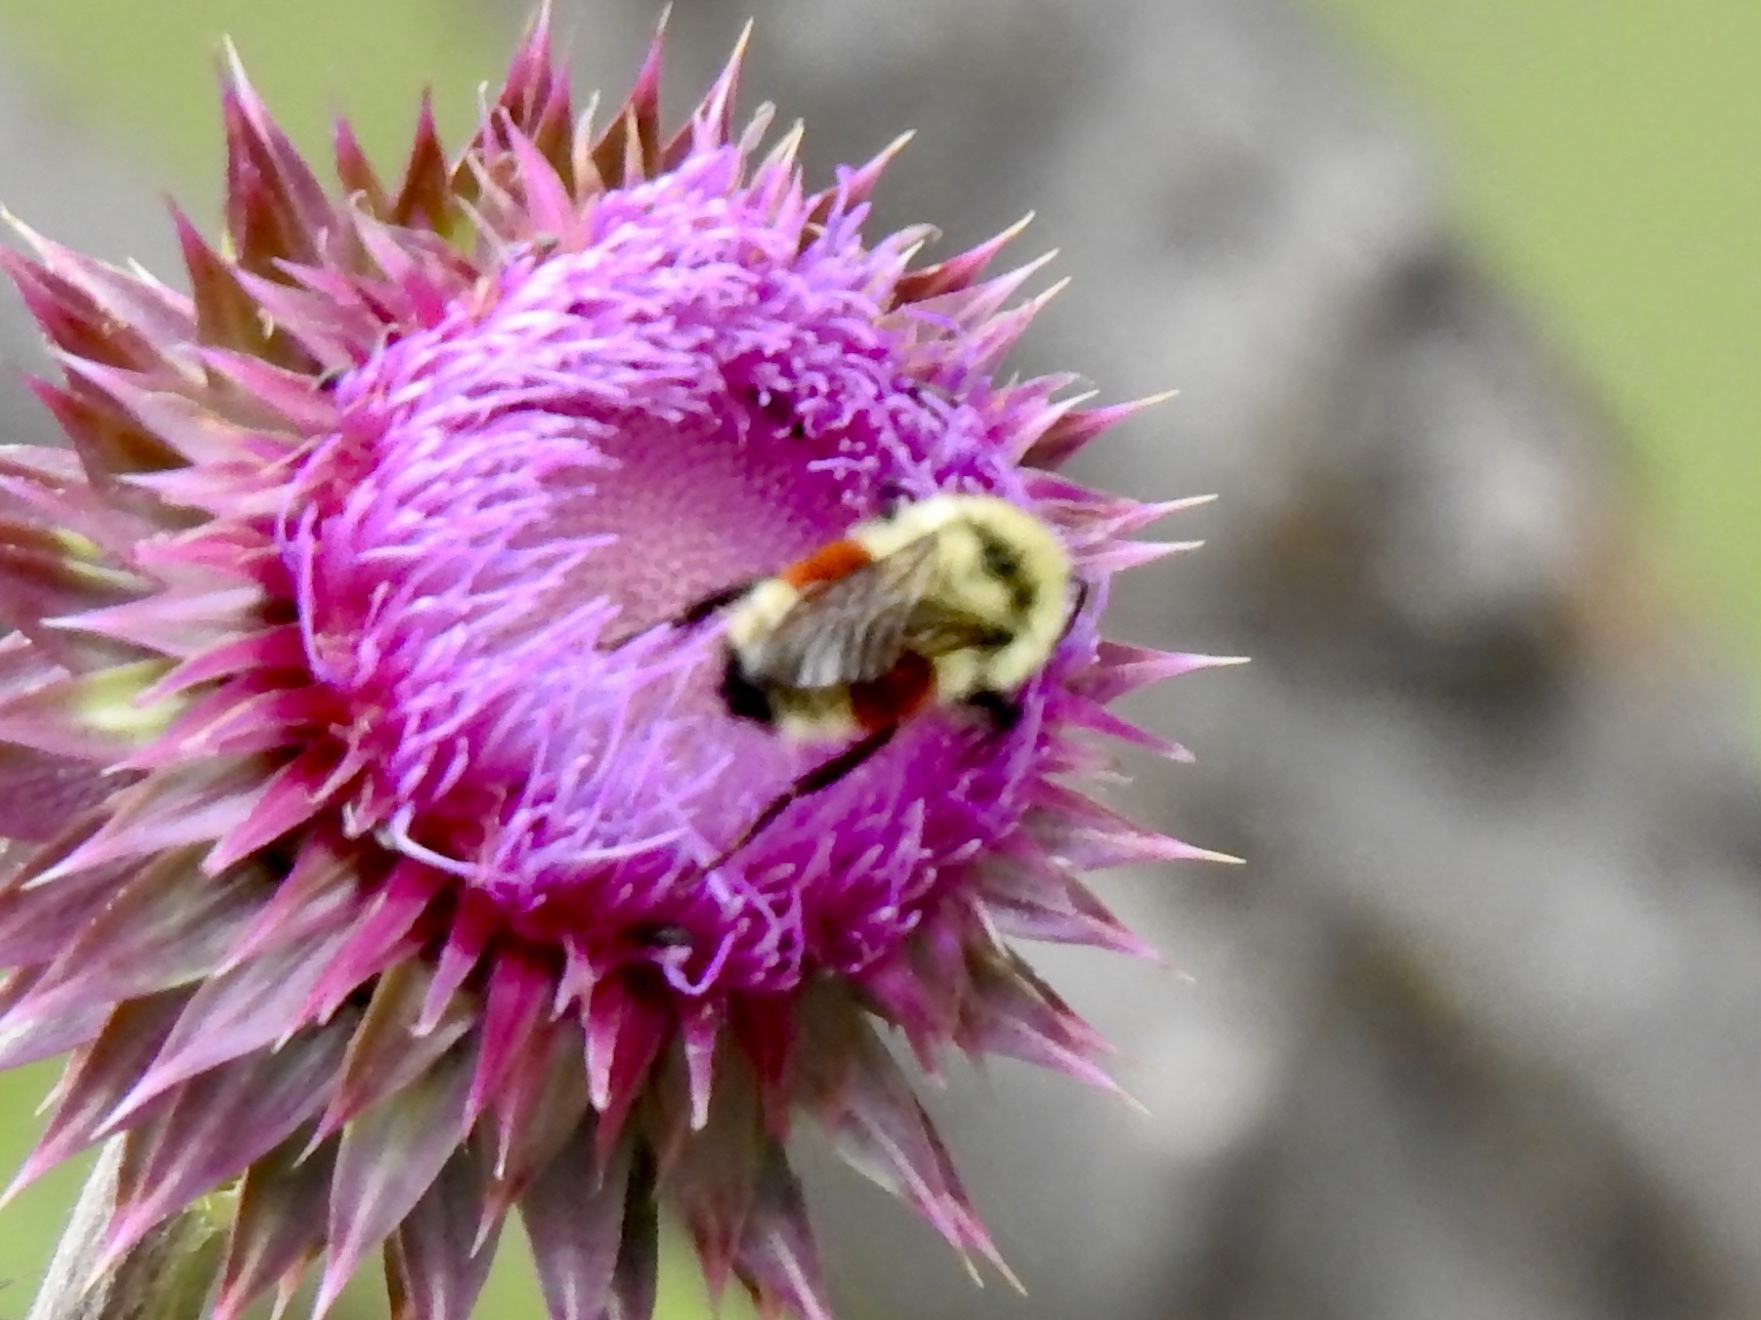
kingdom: Animalia
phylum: Arthropoda
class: Insecta
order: Hymenoptera
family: Apidae
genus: Bombus
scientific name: Bombus huntii
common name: Hunt bumble bee
